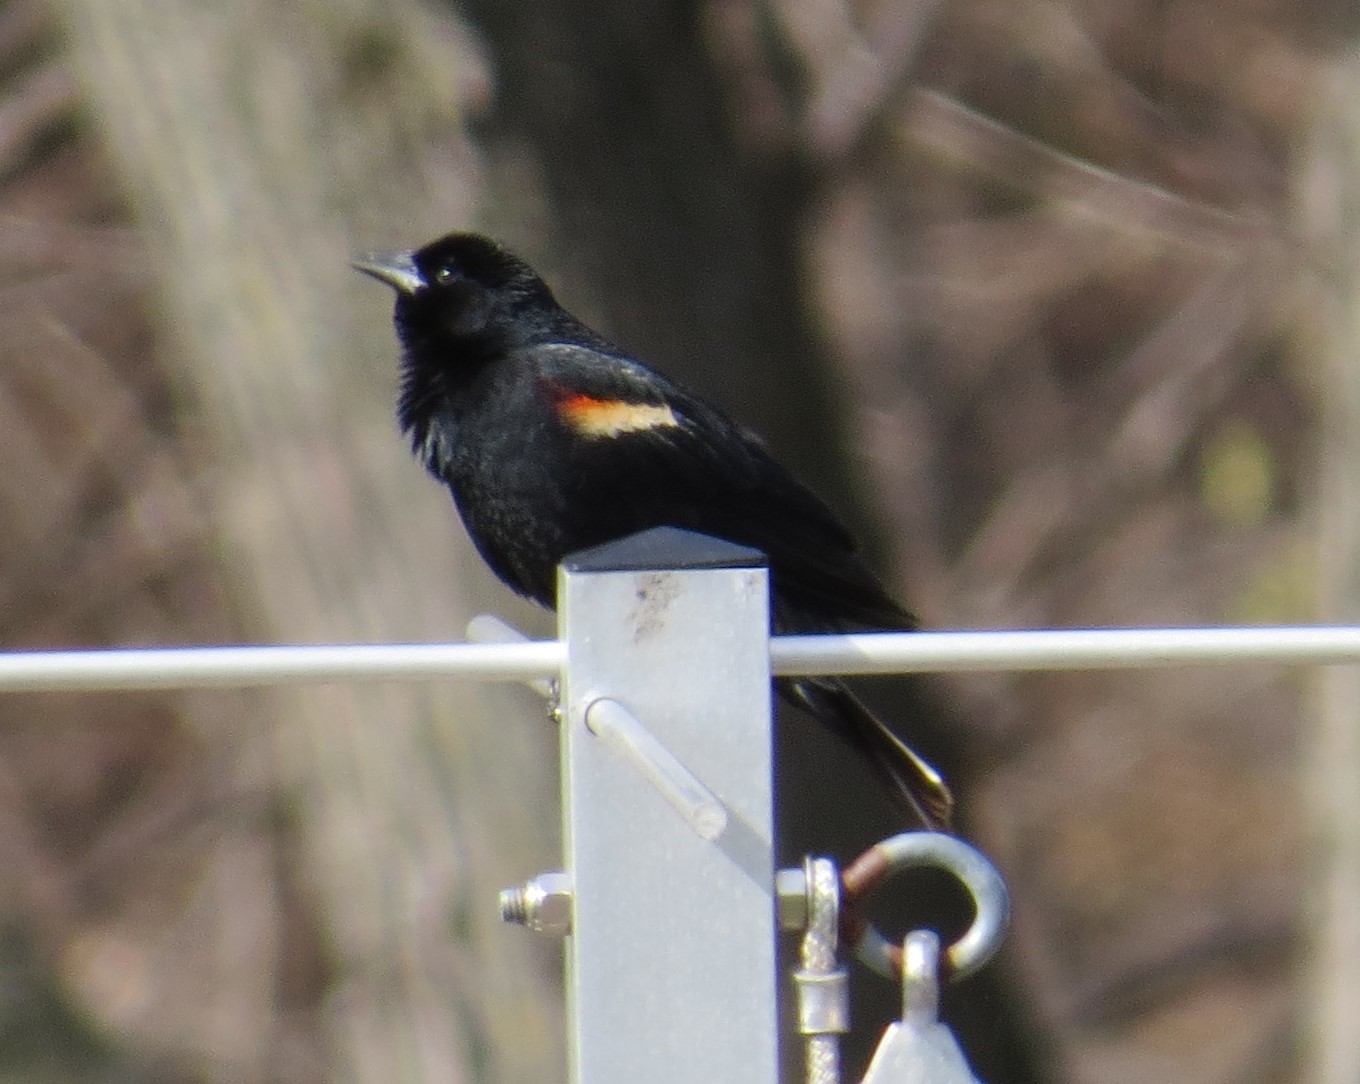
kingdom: Animalia
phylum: Chordata
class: Aves
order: Passeriformes
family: Icteridae
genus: Agelaius
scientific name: Agelaius phoeniceus
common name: Red-winged blackbird
